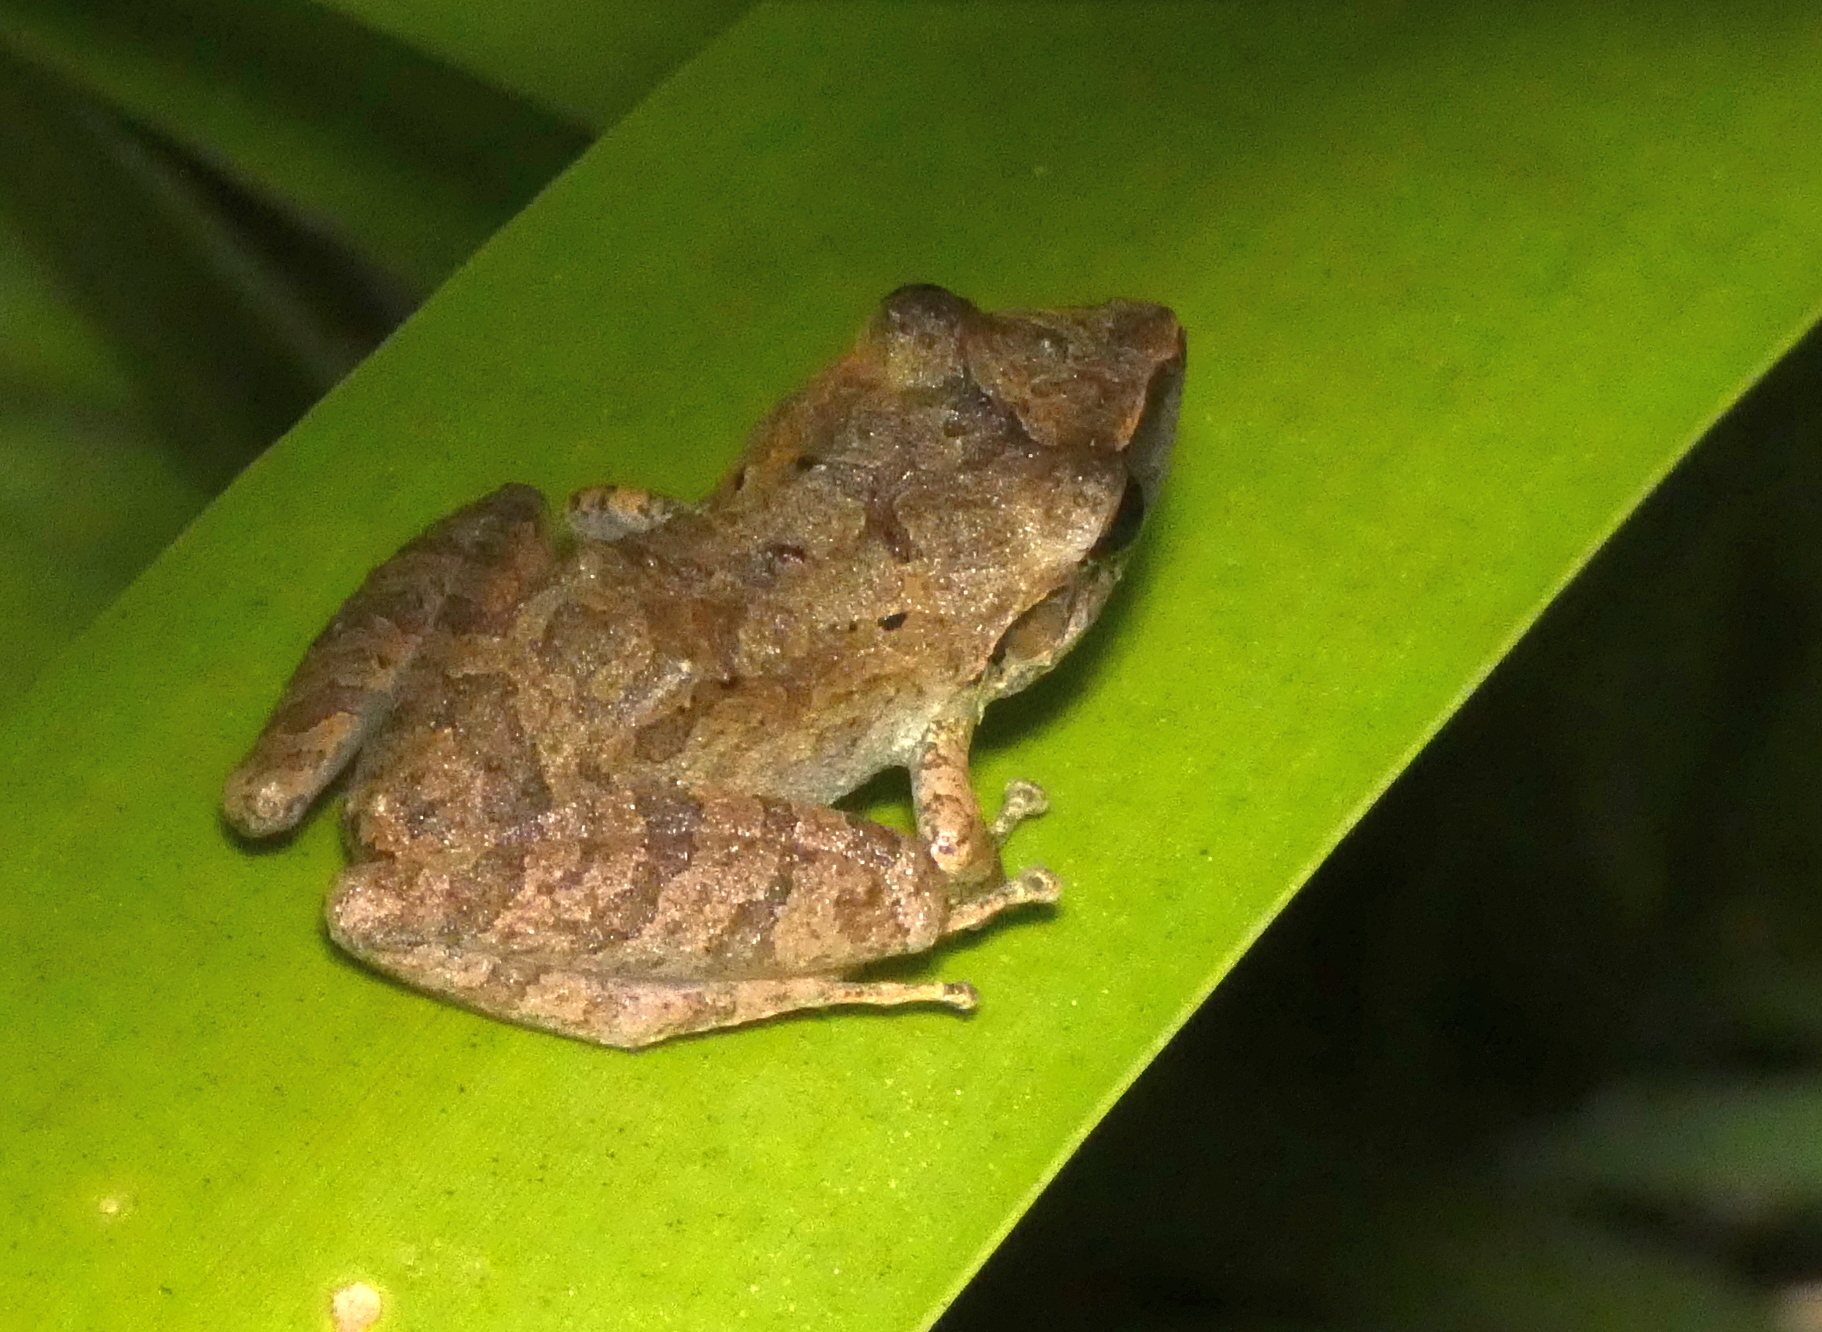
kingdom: Animalia
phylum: Chordata
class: Amphibia
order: Anura
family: Craugastoridae
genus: Pristimantis
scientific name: Pristimantis ramagii
